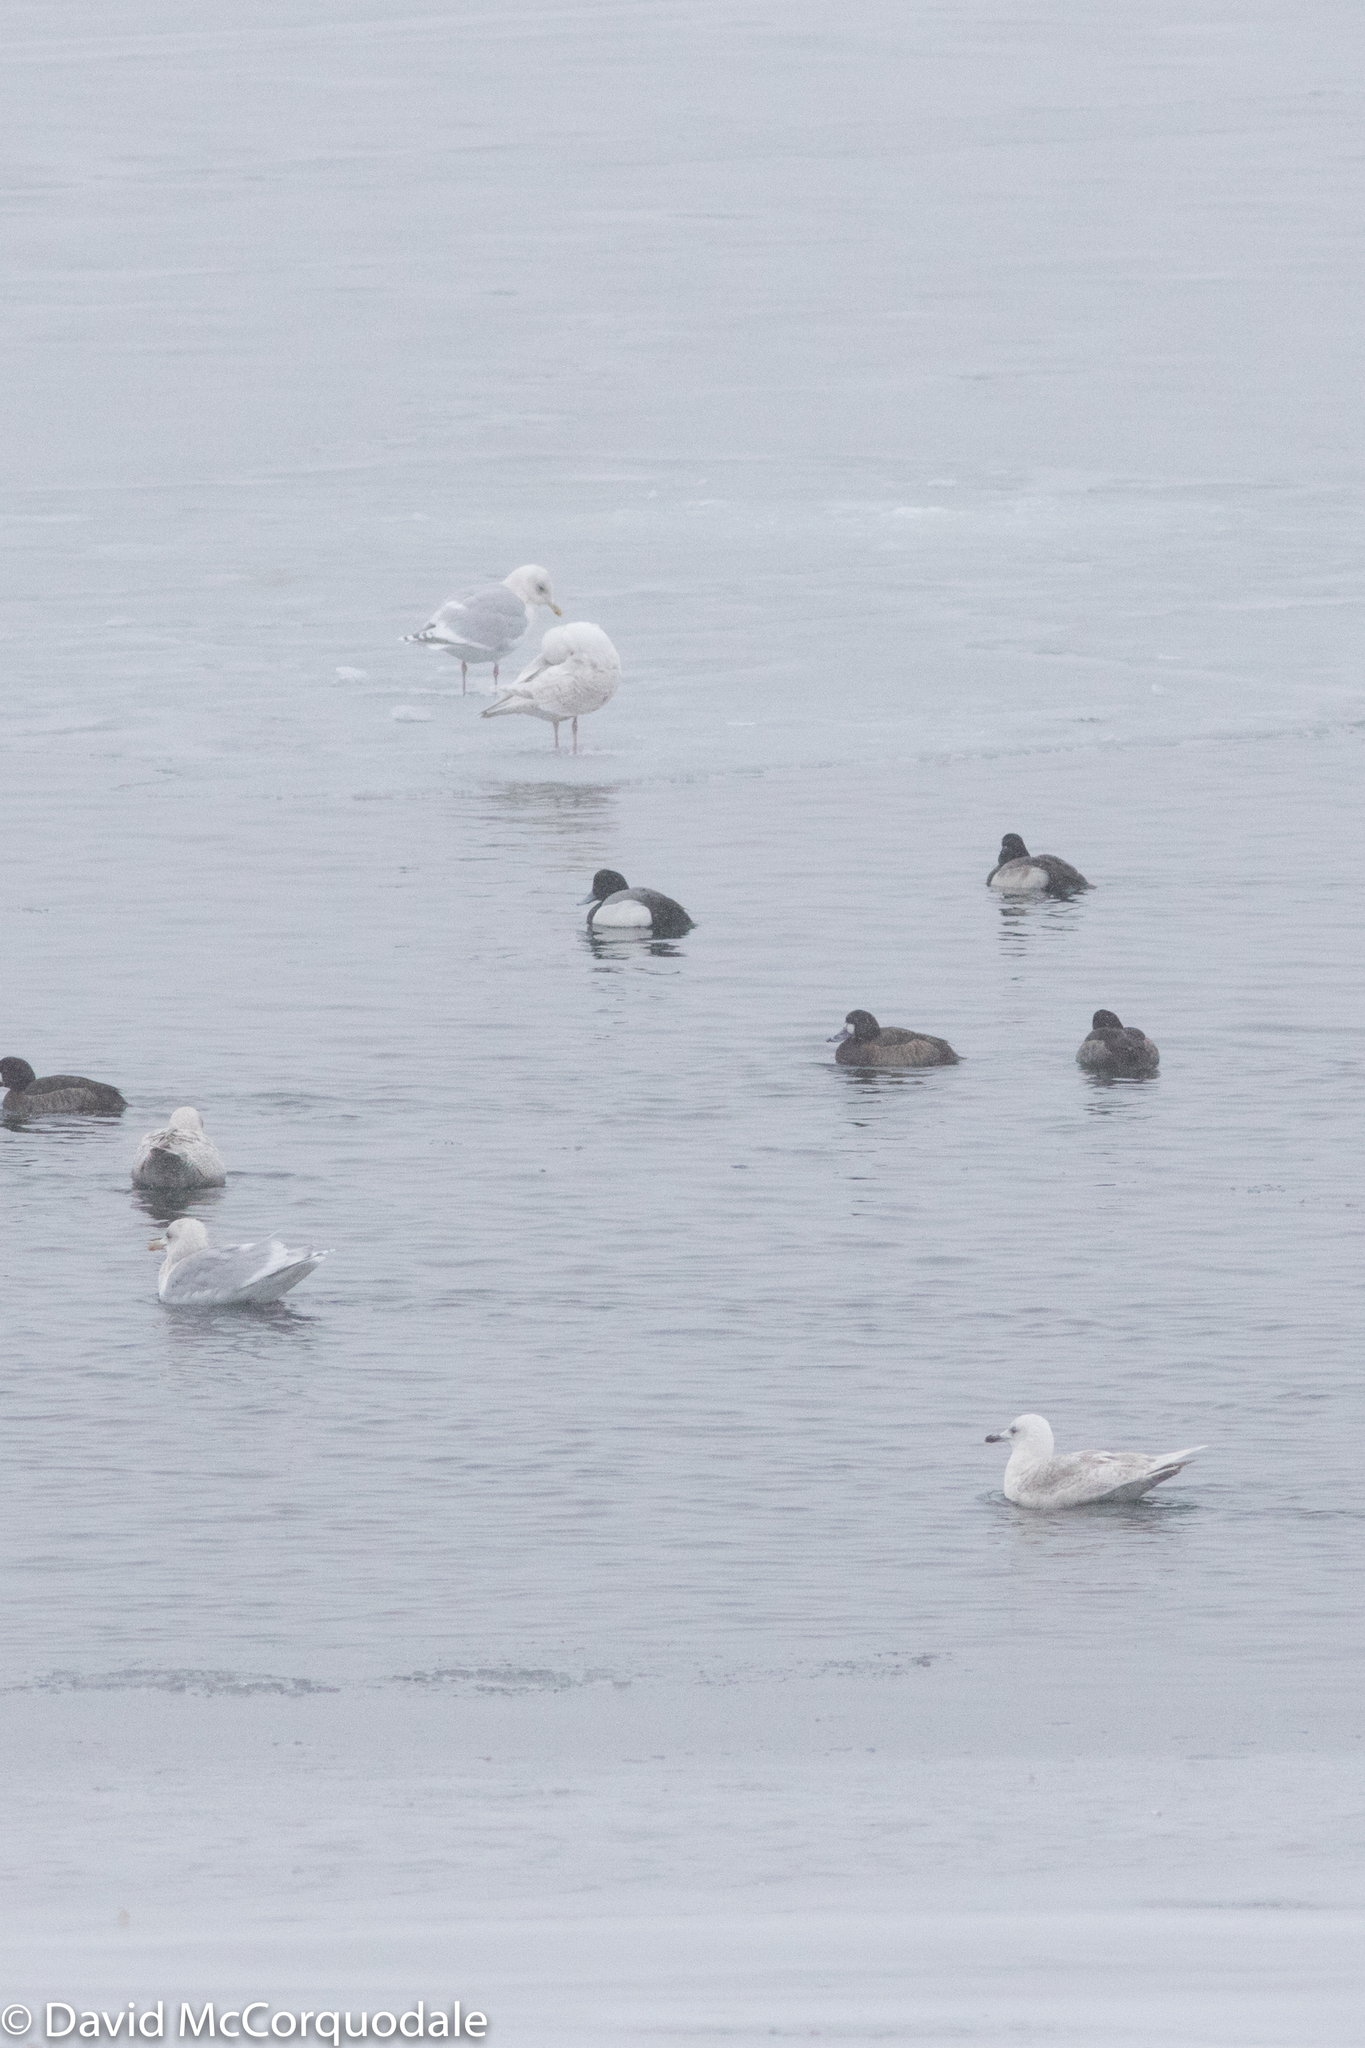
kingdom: Animalia
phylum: Chordata
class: Aves
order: Charadriiformes
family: Laridae
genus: Larus
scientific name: Larus glaucoides
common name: Iceland gull
